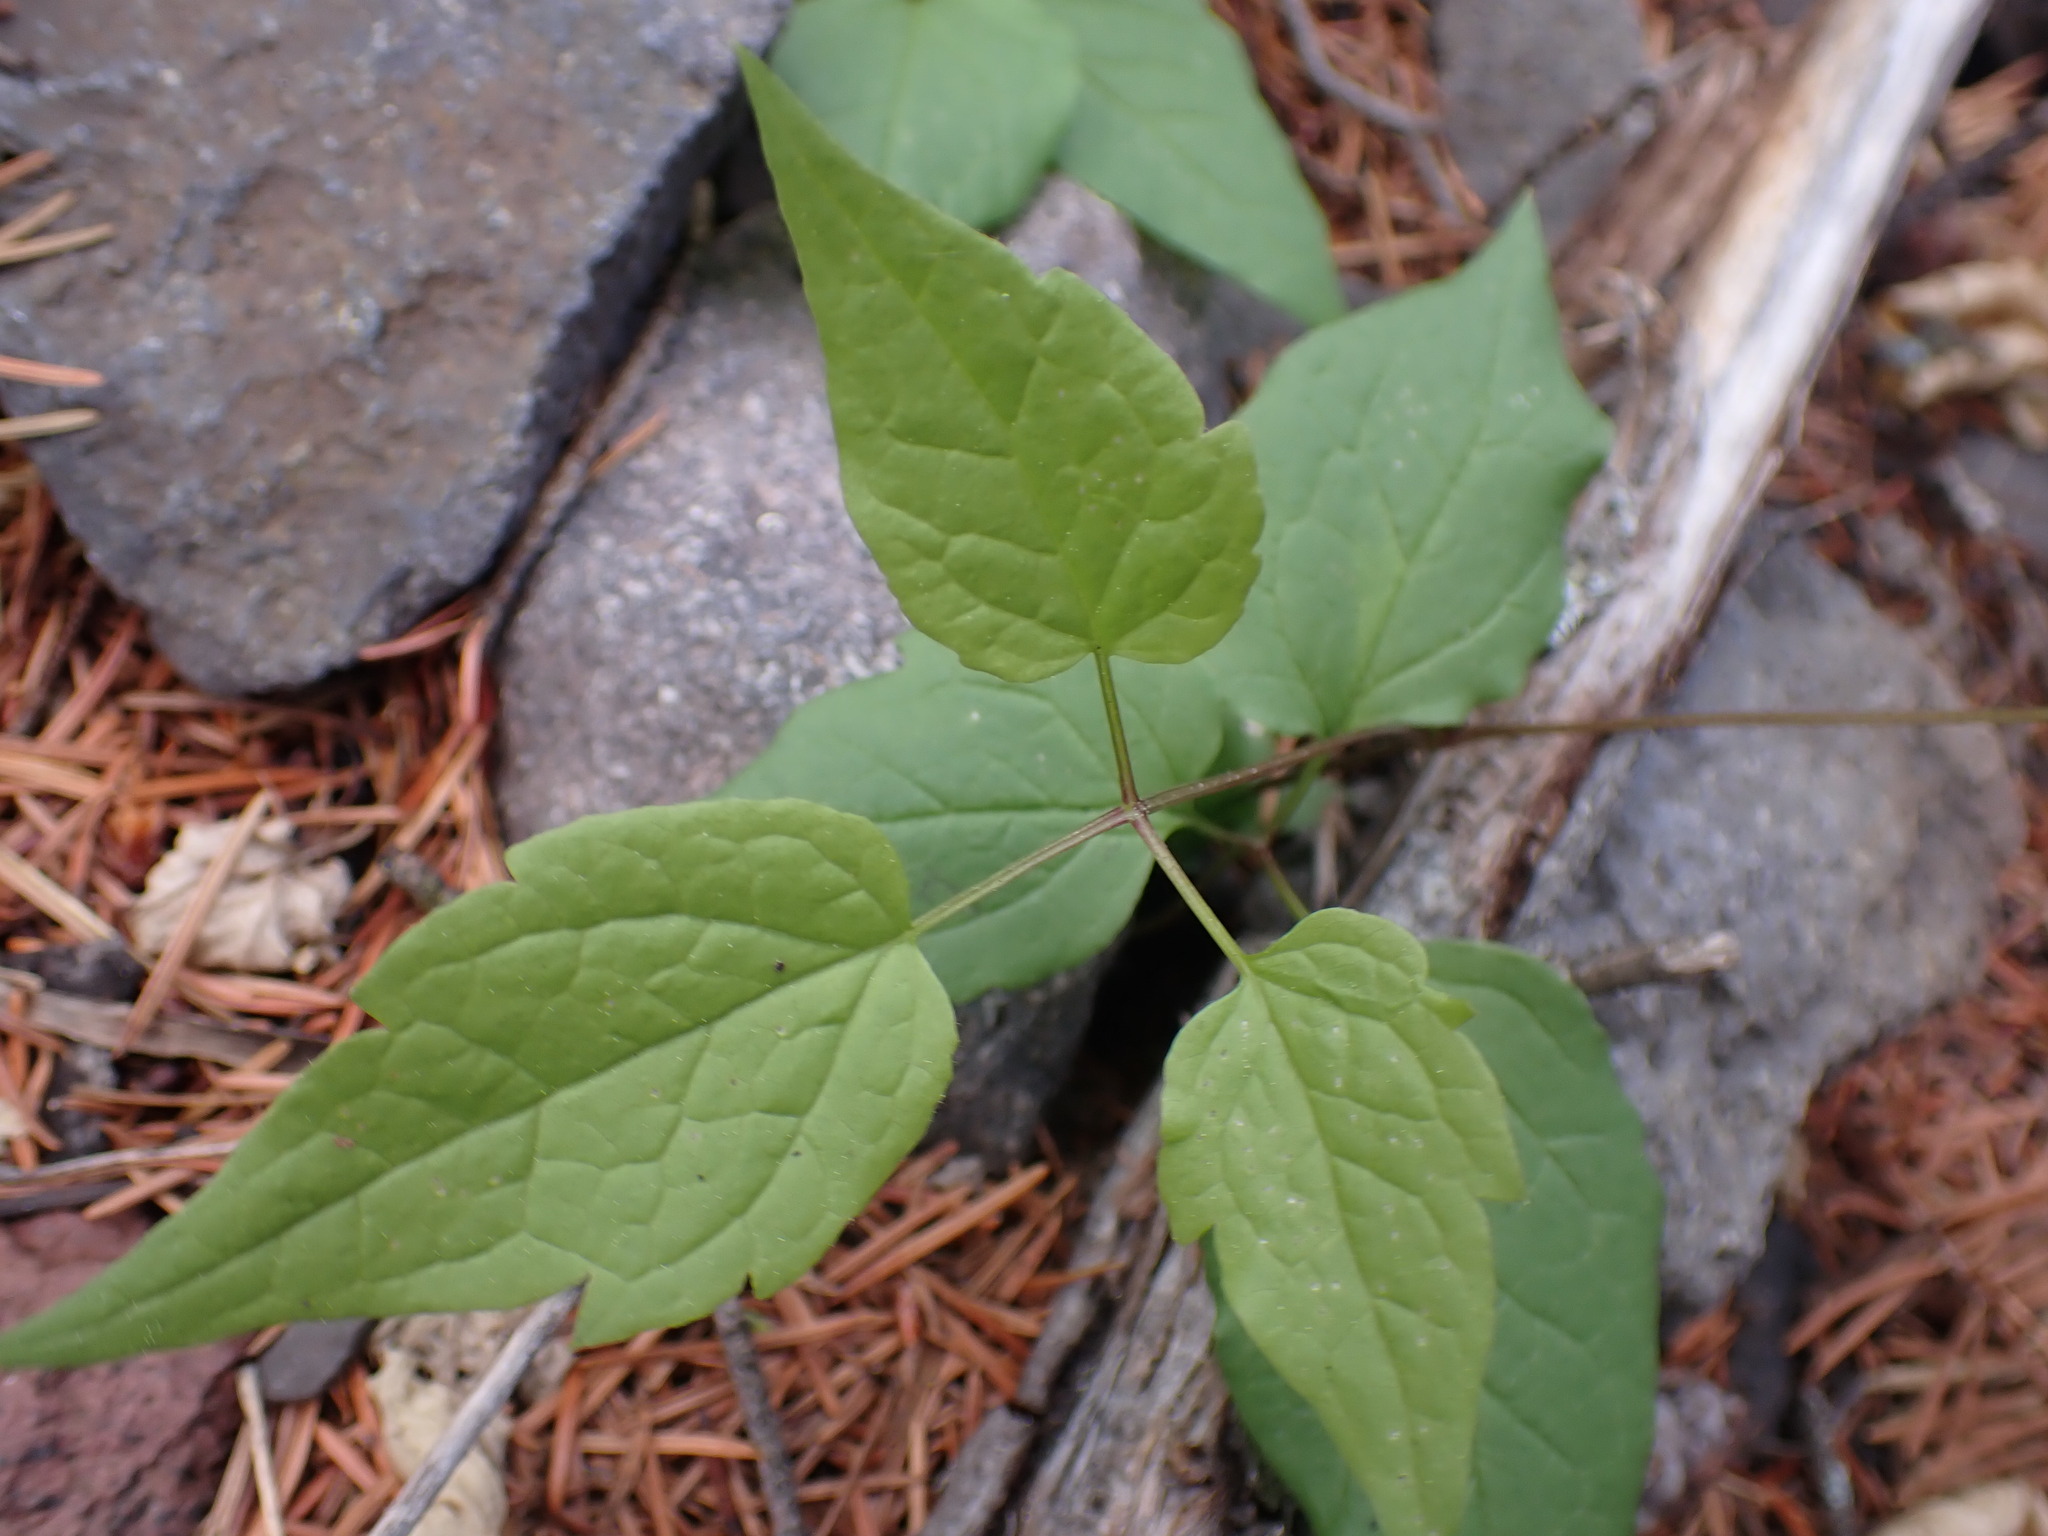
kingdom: Plantae
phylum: Tracheophyta
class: Magnoliopsida
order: Ranunculales
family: Ranunculaceae
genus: Clematis
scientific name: Clematis occidentalis
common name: Purple clematis
